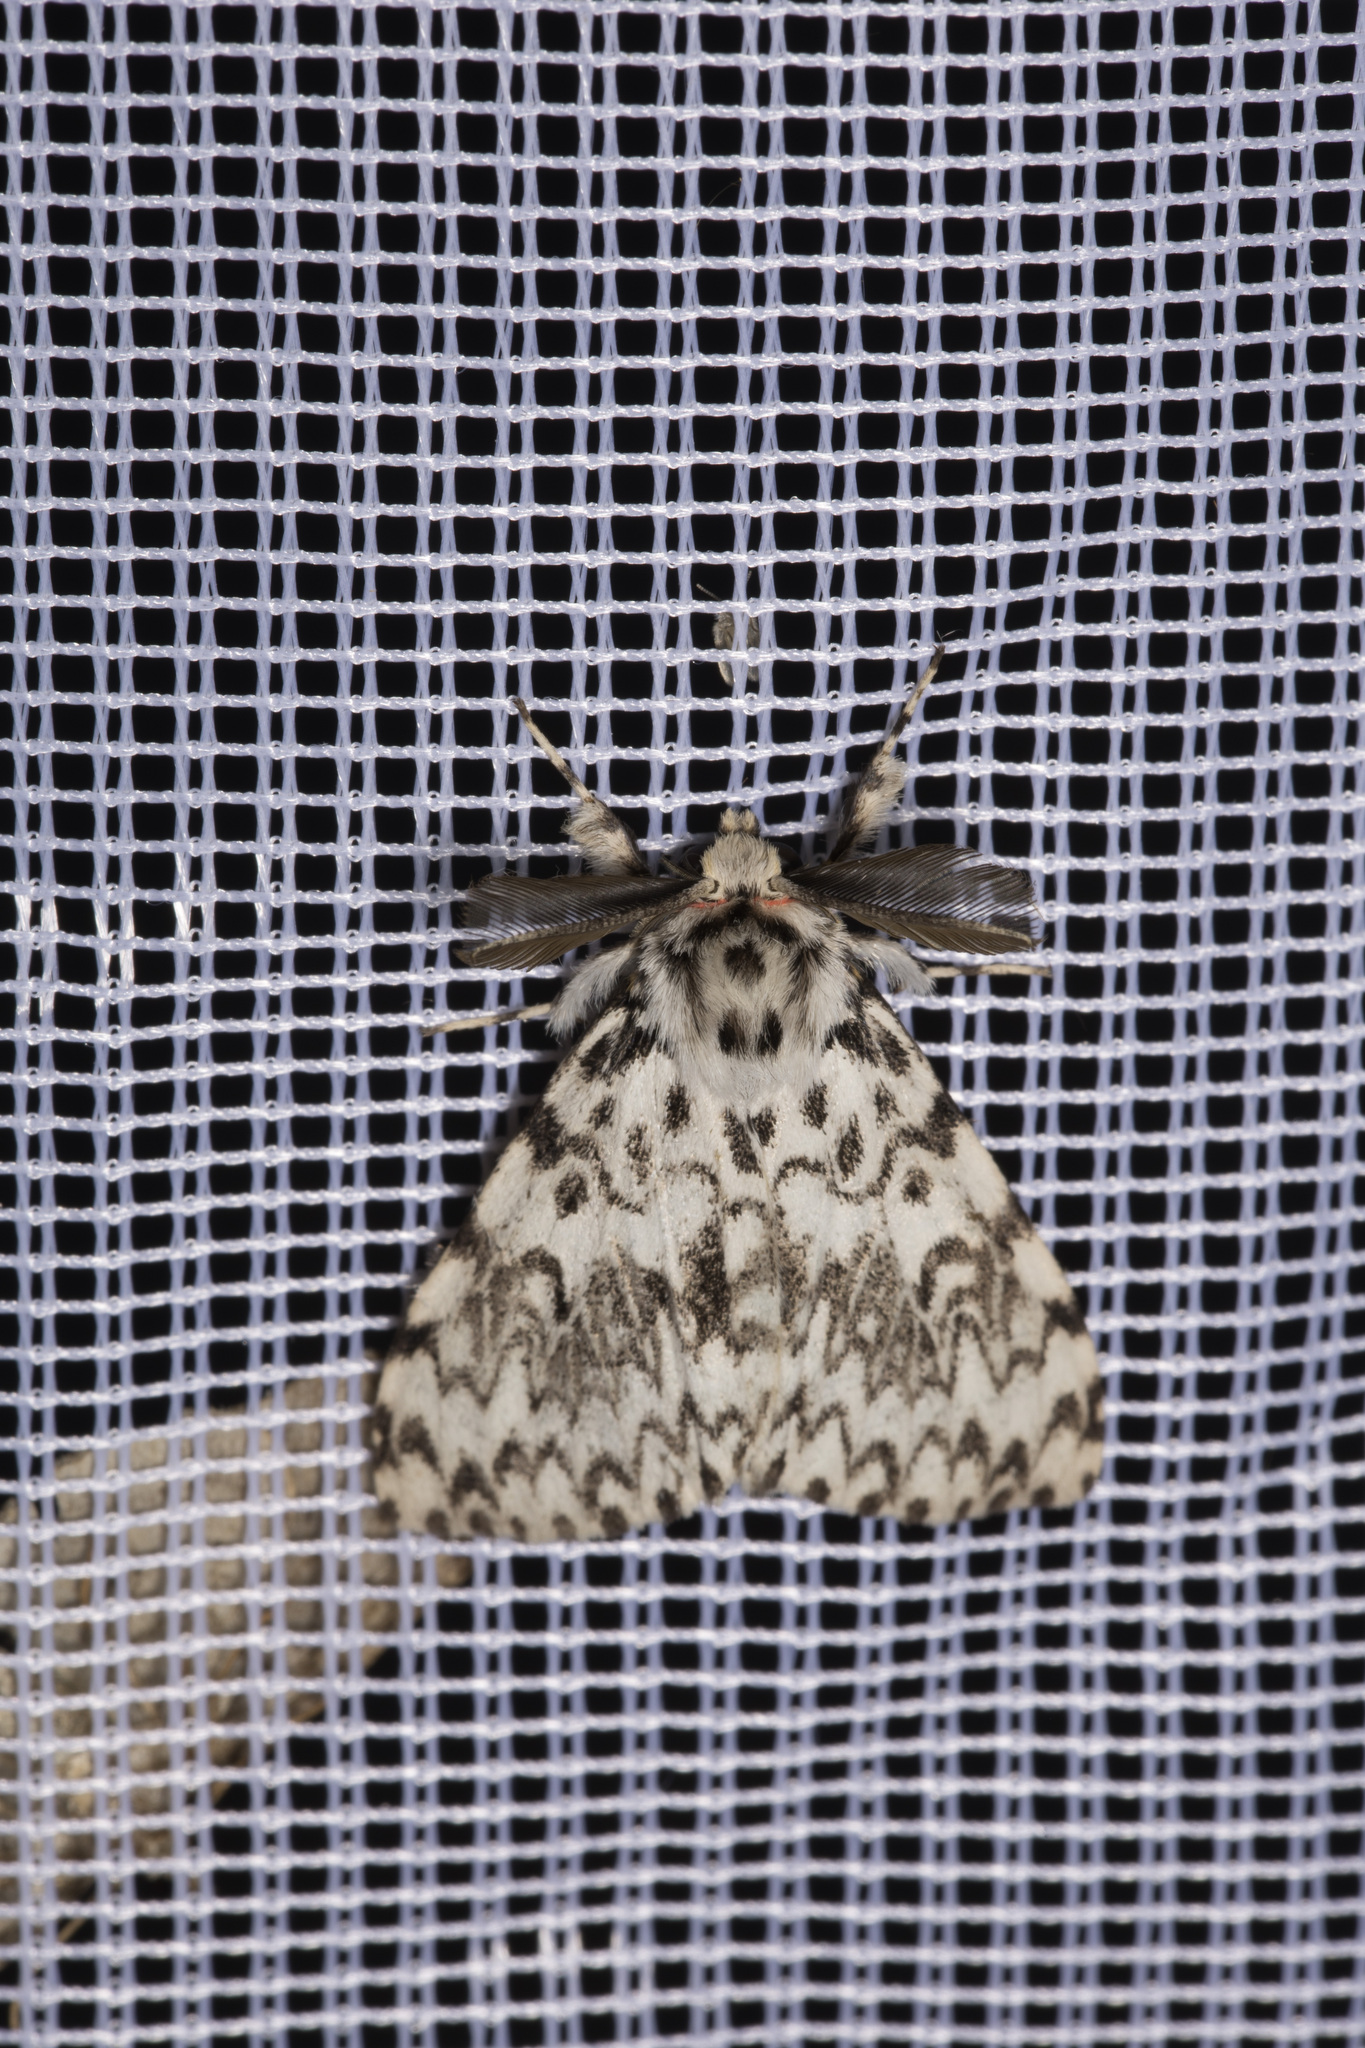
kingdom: Animalia
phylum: Arthropoda
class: Insecta
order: Lepidoptera
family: Erebidae
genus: Lymantria
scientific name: Lymantria monacha
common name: Black arches
